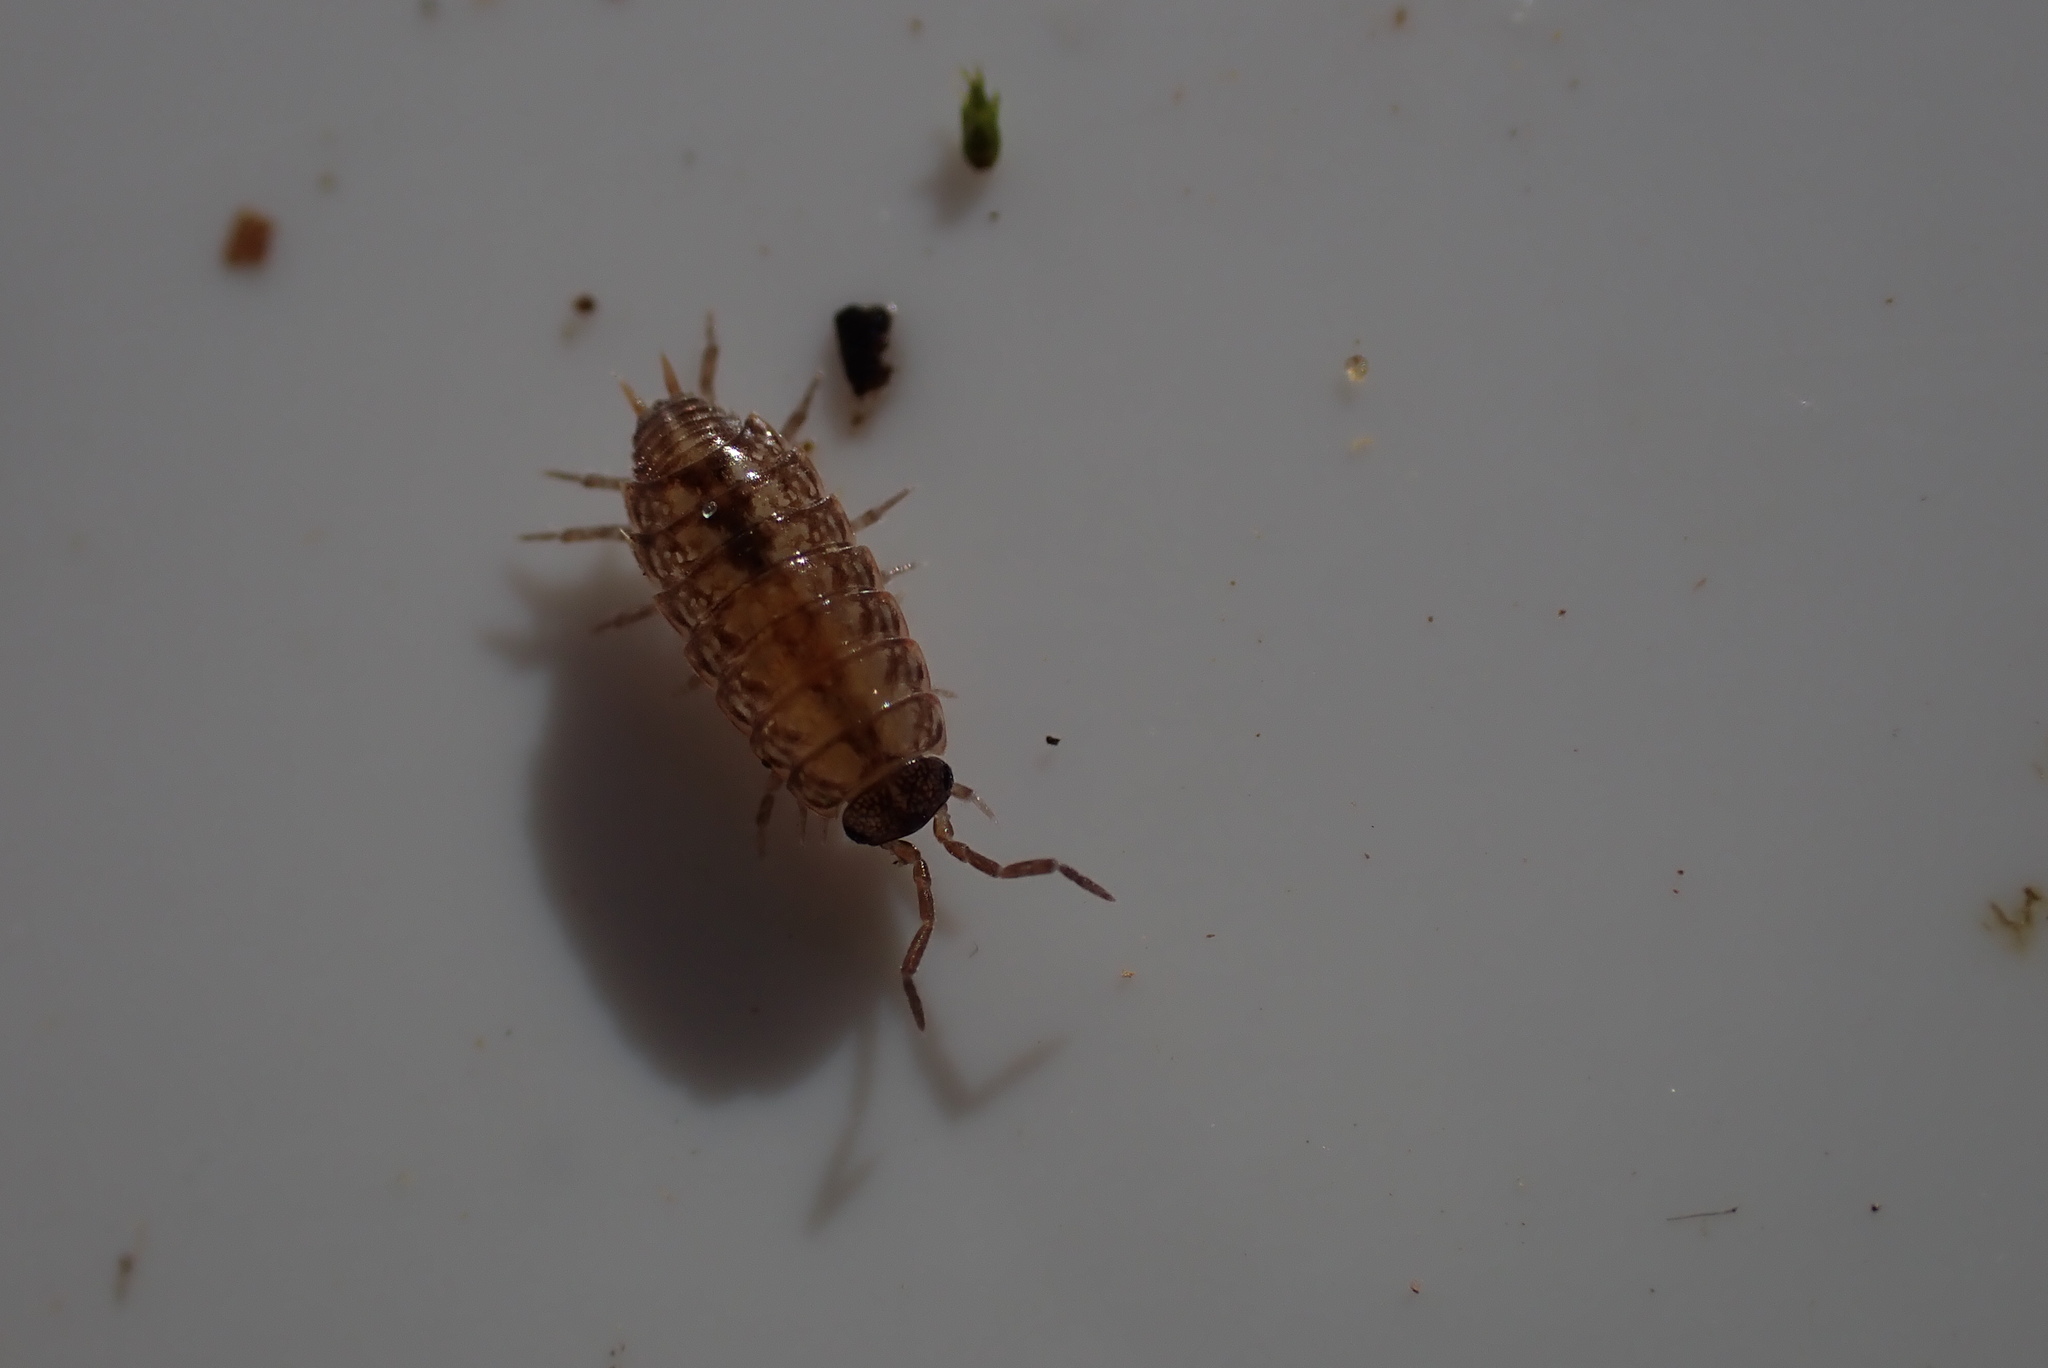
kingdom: Animalia
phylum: Arthropoda
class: Malacostraca
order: Isopoda
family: Philosciidae
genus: Philoscia
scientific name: Philoscia muscorum
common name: Common striped woodlouse
